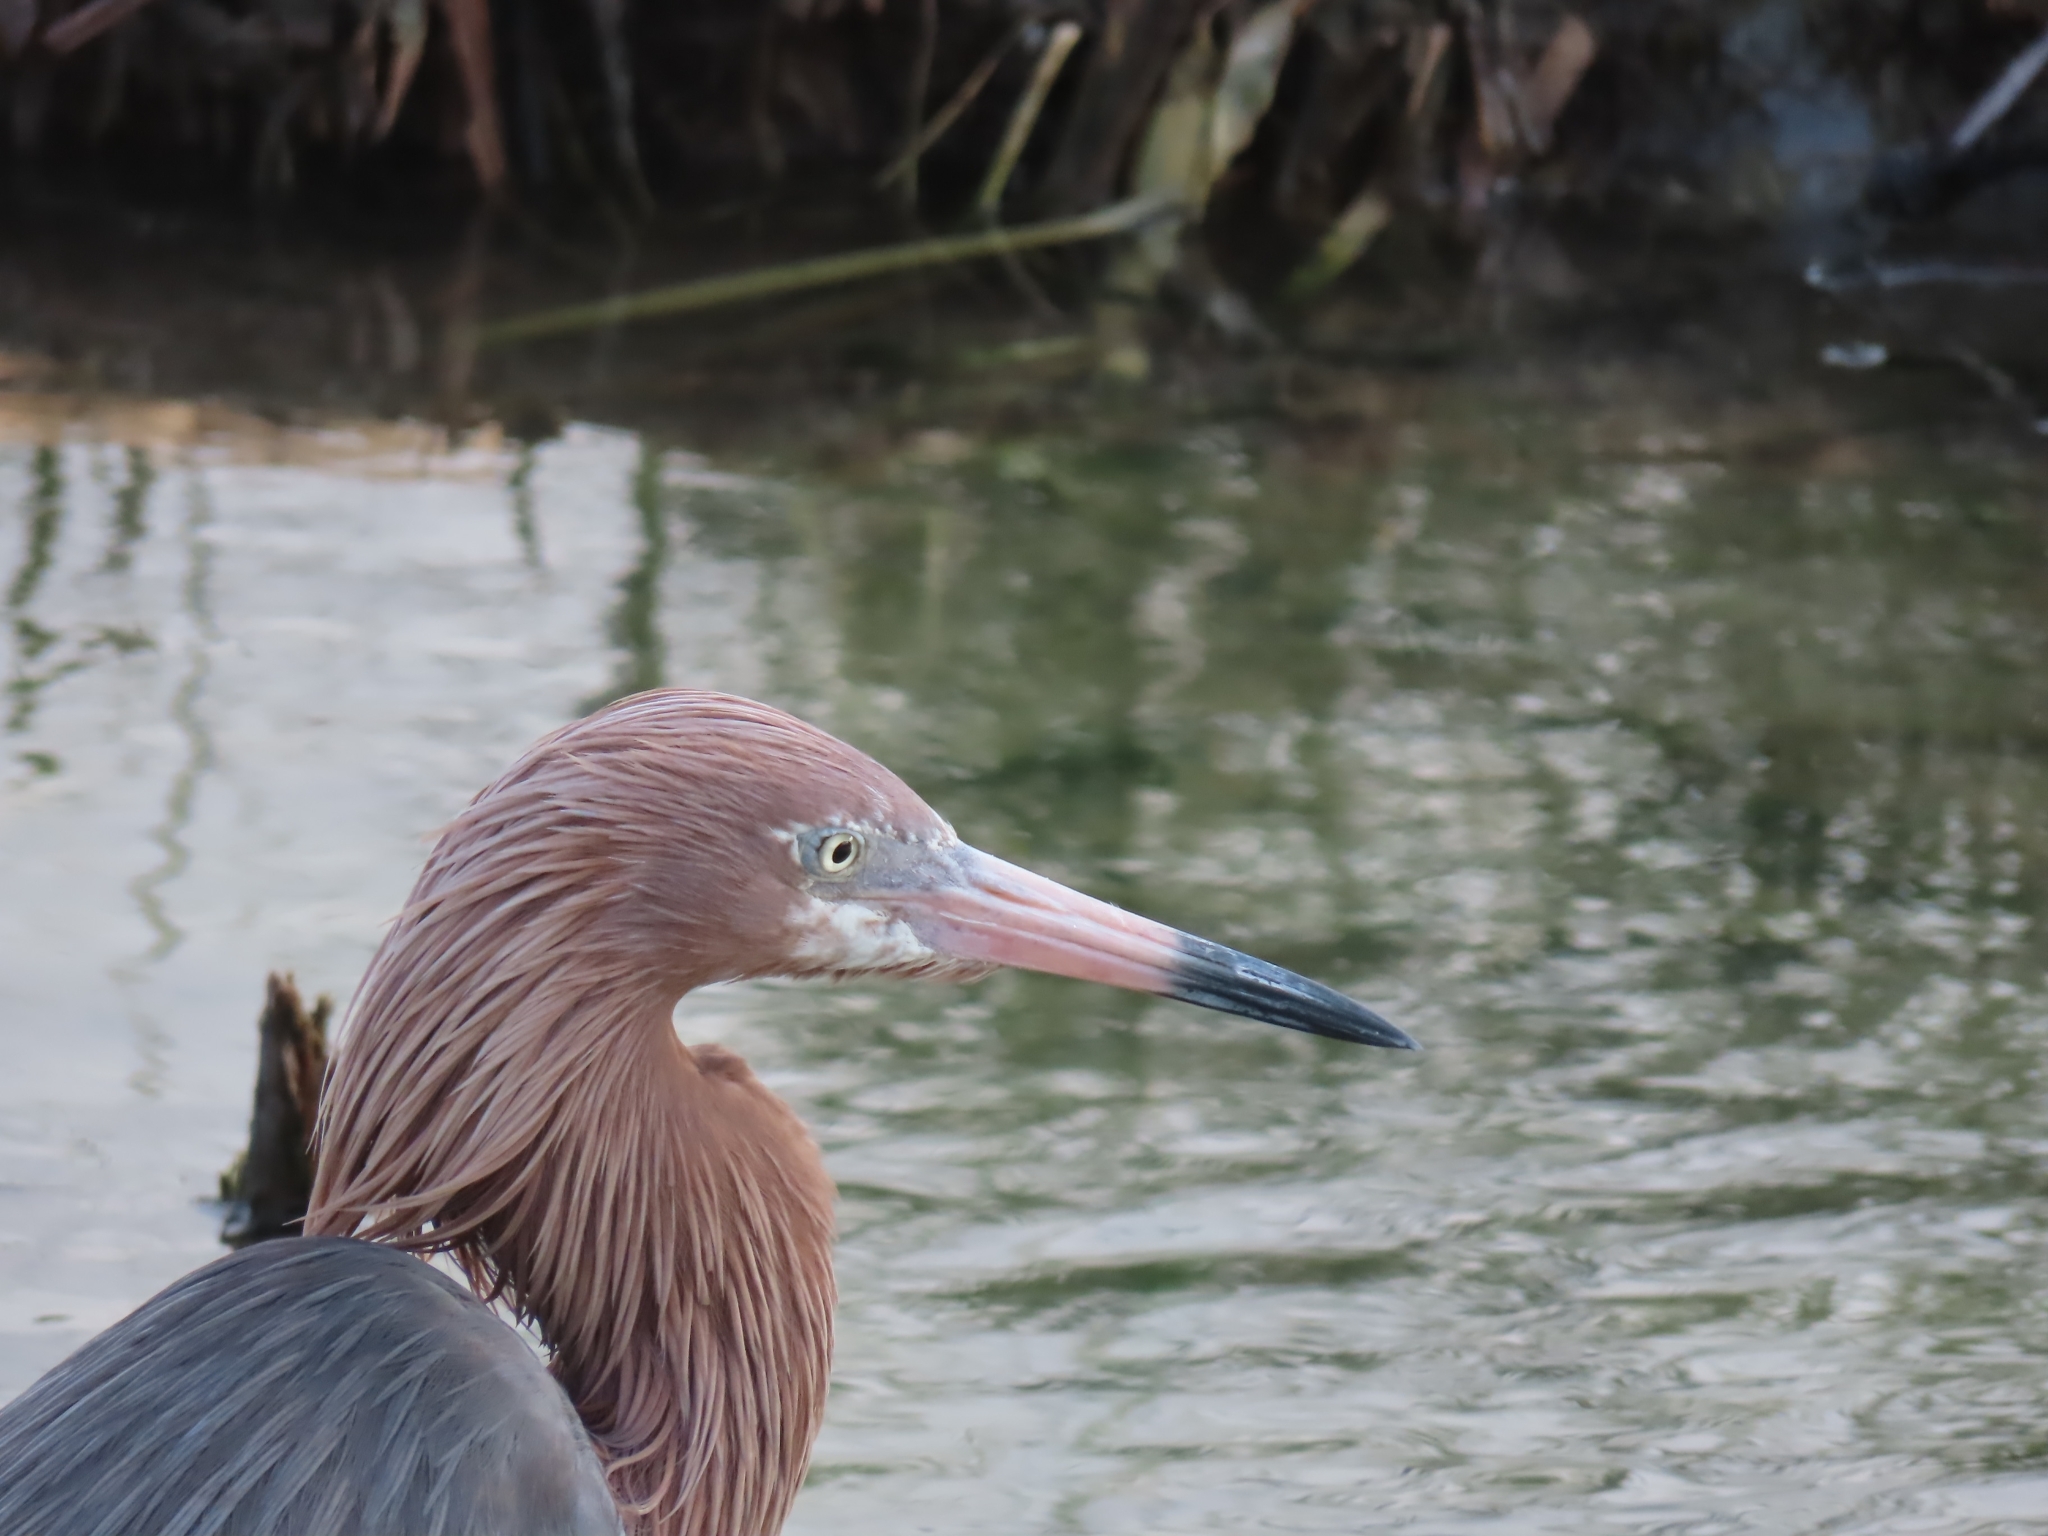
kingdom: Animalia
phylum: Chordata
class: Aves
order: Pelecaniformes
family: Ardeidae
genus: Egretta
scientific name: Egretta rufescens
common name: Reddish egret
